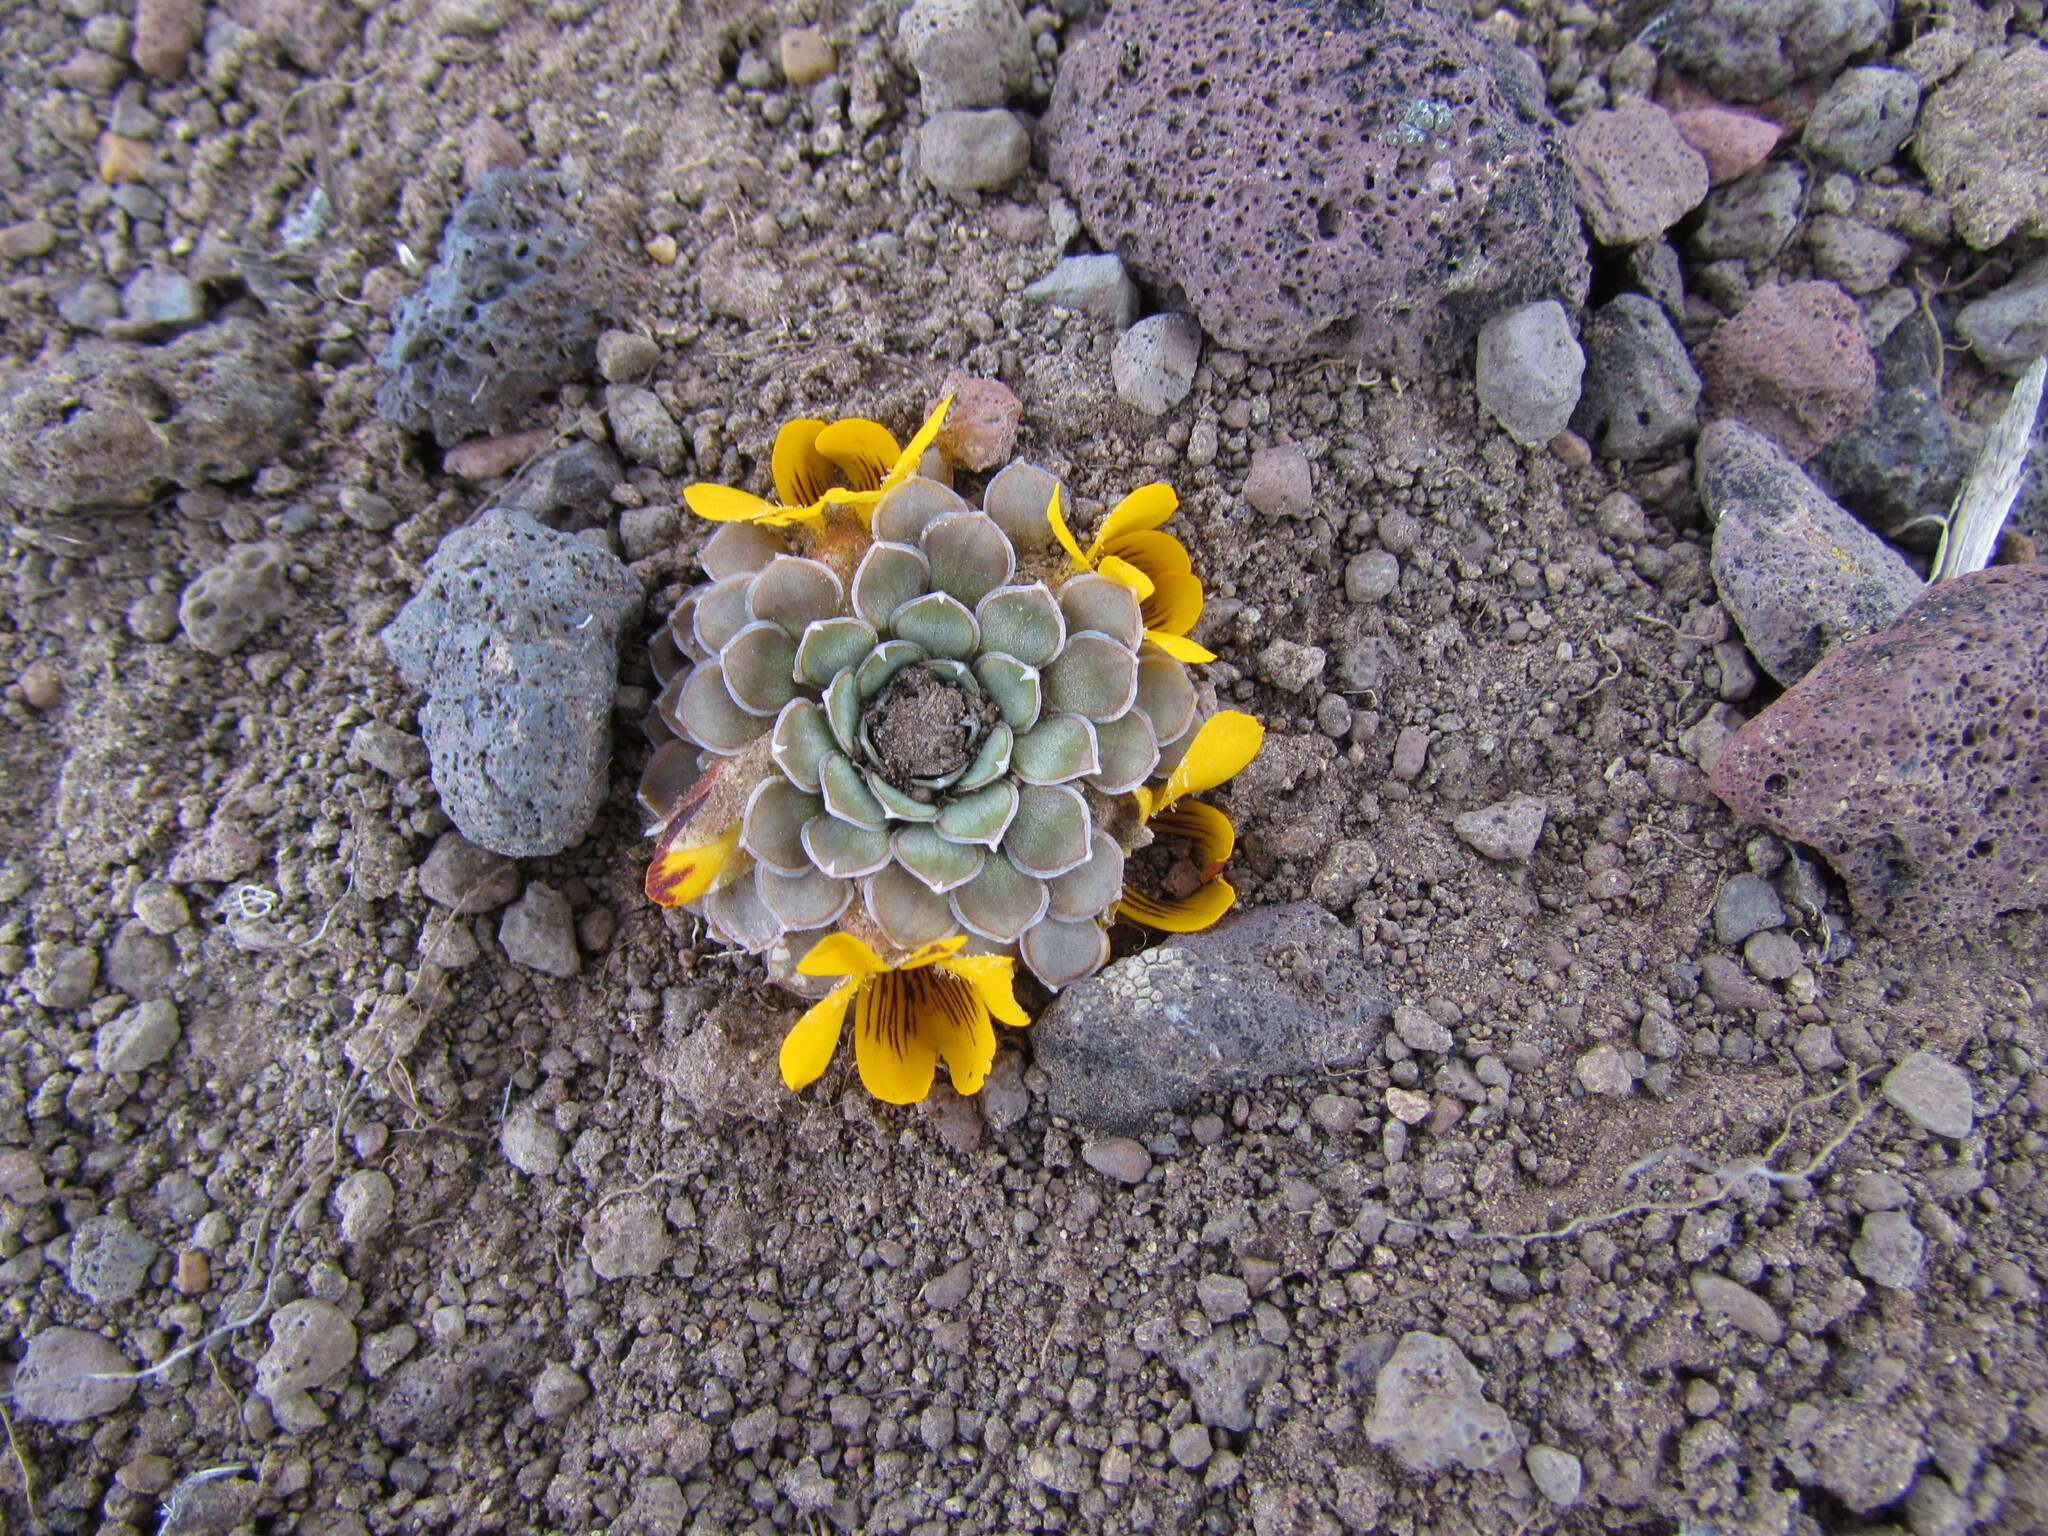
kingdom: Plantae
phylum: Tracheophyta
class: Magnoliopsida
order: Malpighiales
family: Violaceae
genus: Viola
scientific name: Viola auricolor
